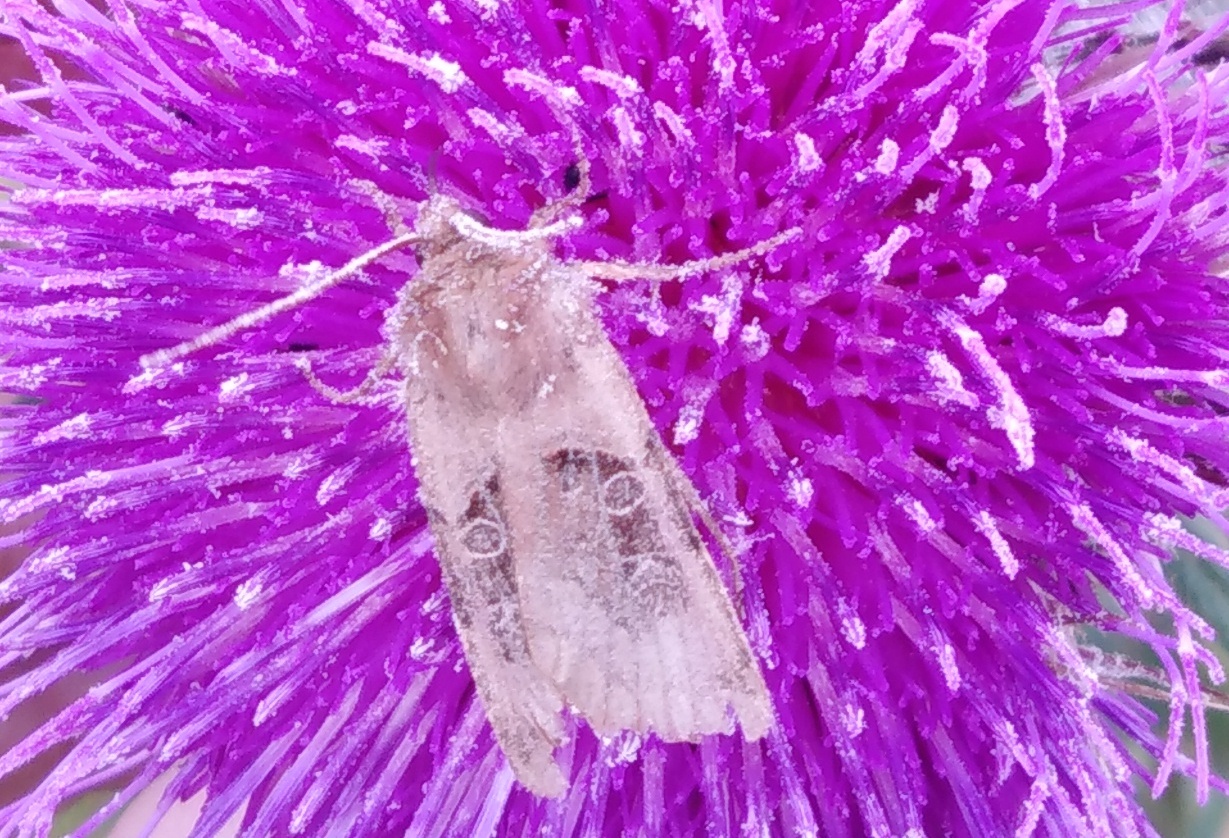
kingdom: Animalia
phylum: Arthropoda
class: Insecta
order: Lepidoptera
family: Noctuidae
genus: Chersotis
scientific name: Chersotis cuprea
